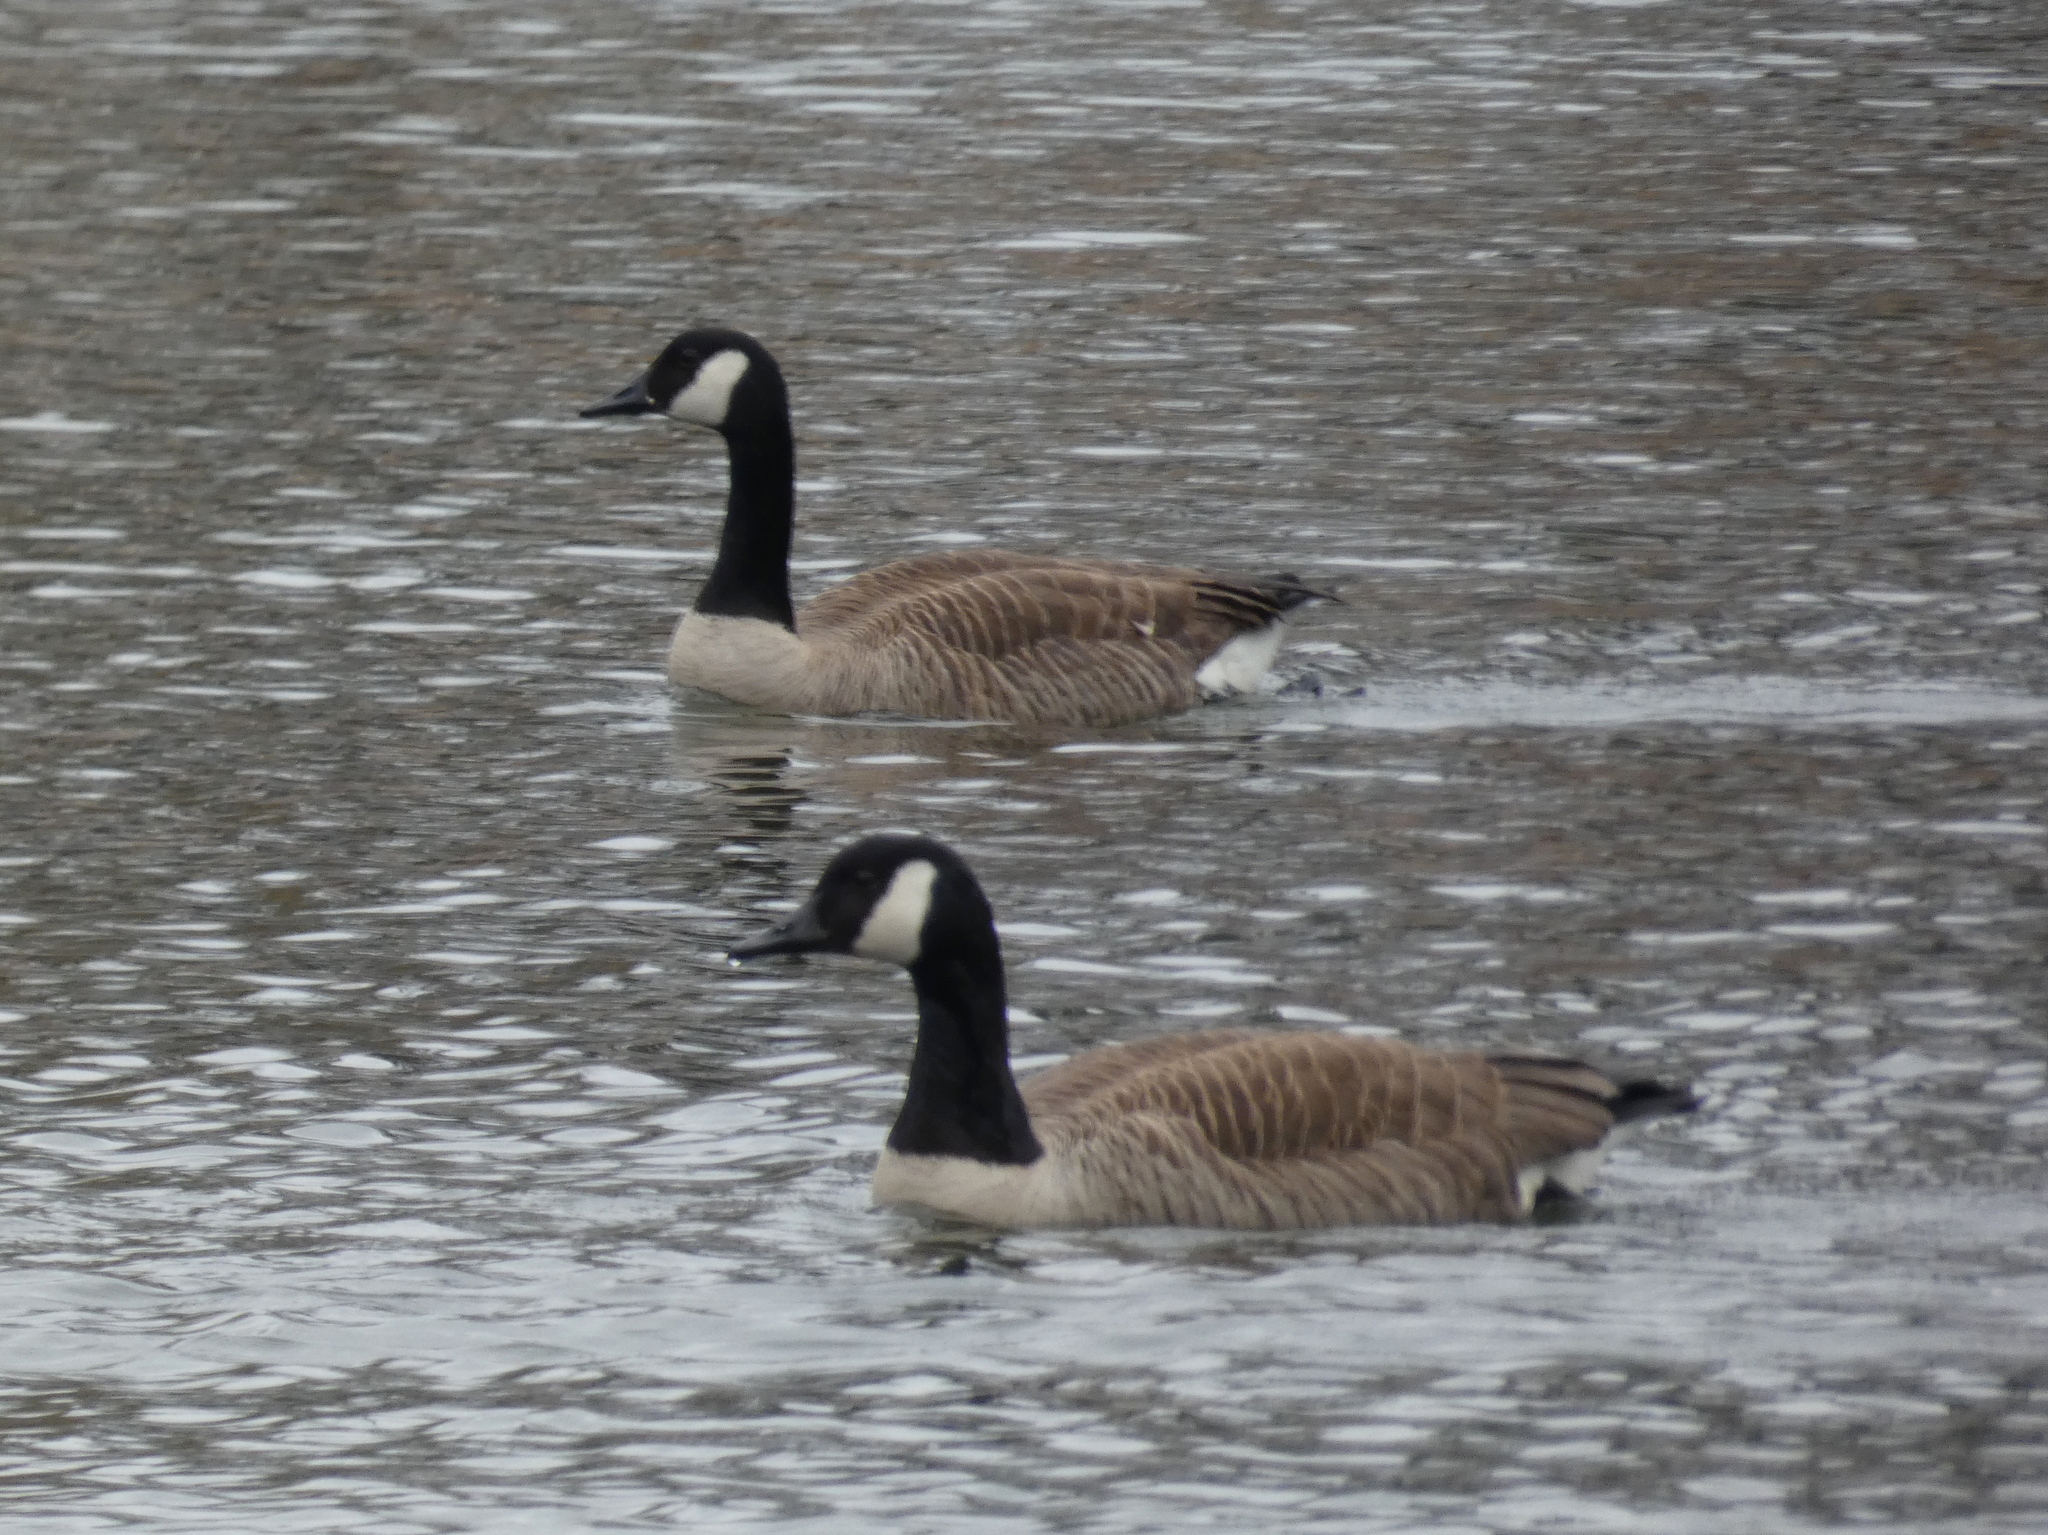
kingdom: Animalia
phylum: Chordata
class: Aves
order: Anseriformes
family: Anatidae
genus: Branta
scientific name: Branta canadensis
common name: Canada goose
